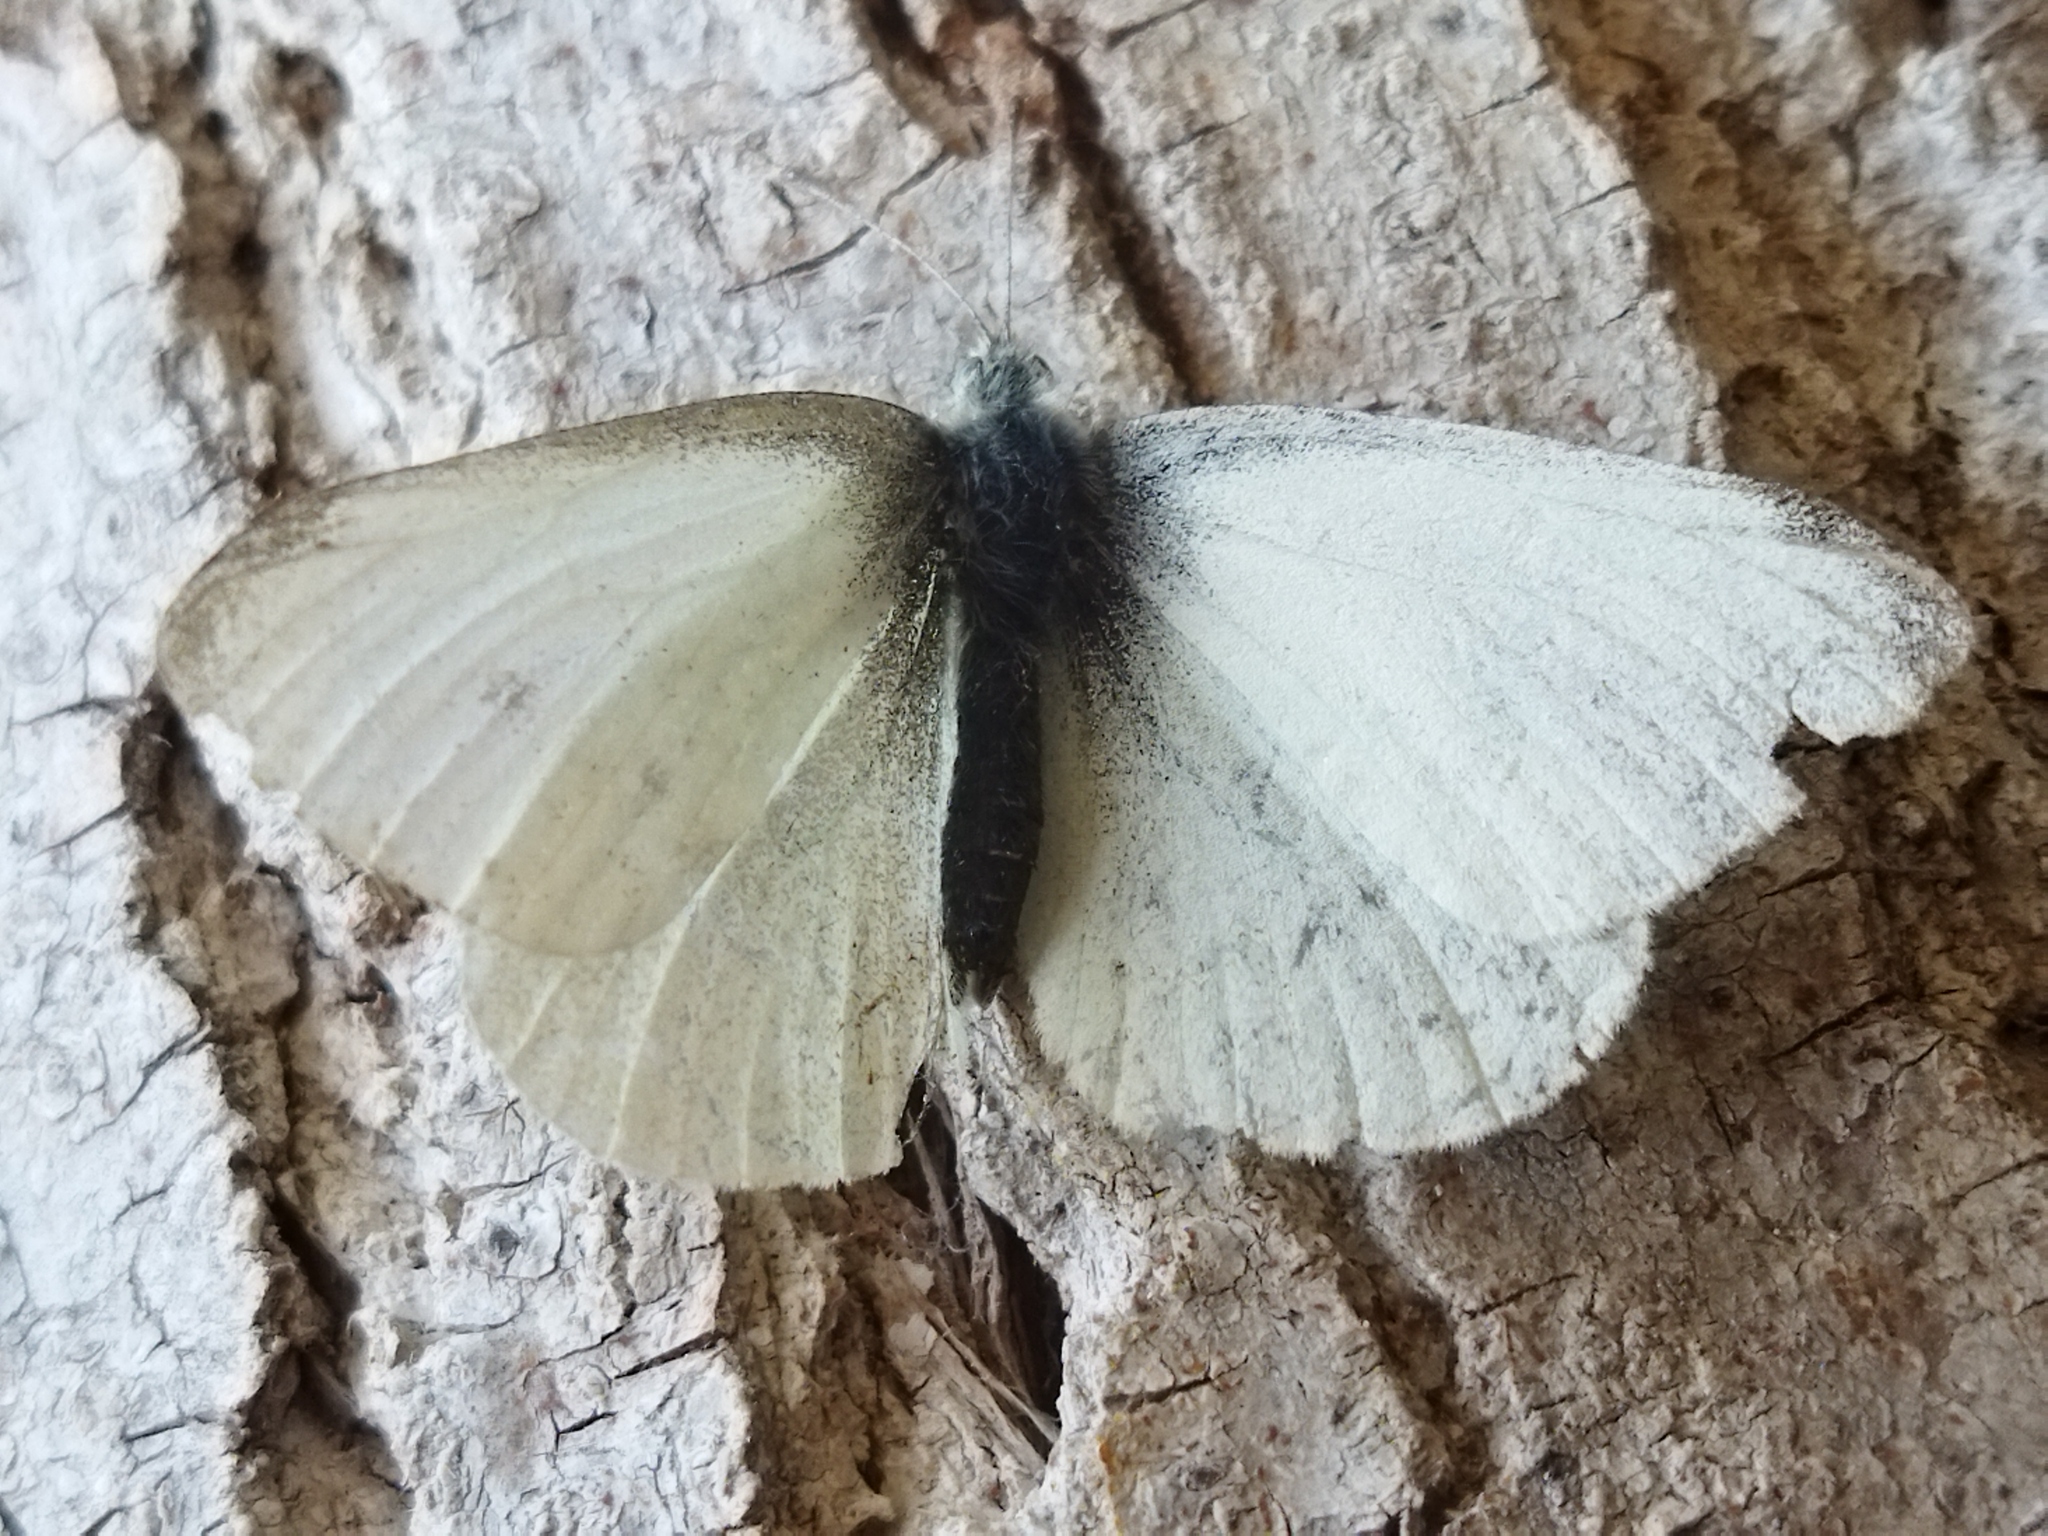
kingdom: Animalia
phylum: Arthropoda
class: Insecta
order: Lepidoptera
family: Pieridae
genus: Pieris
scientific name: Pieris rapae
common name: Small white
